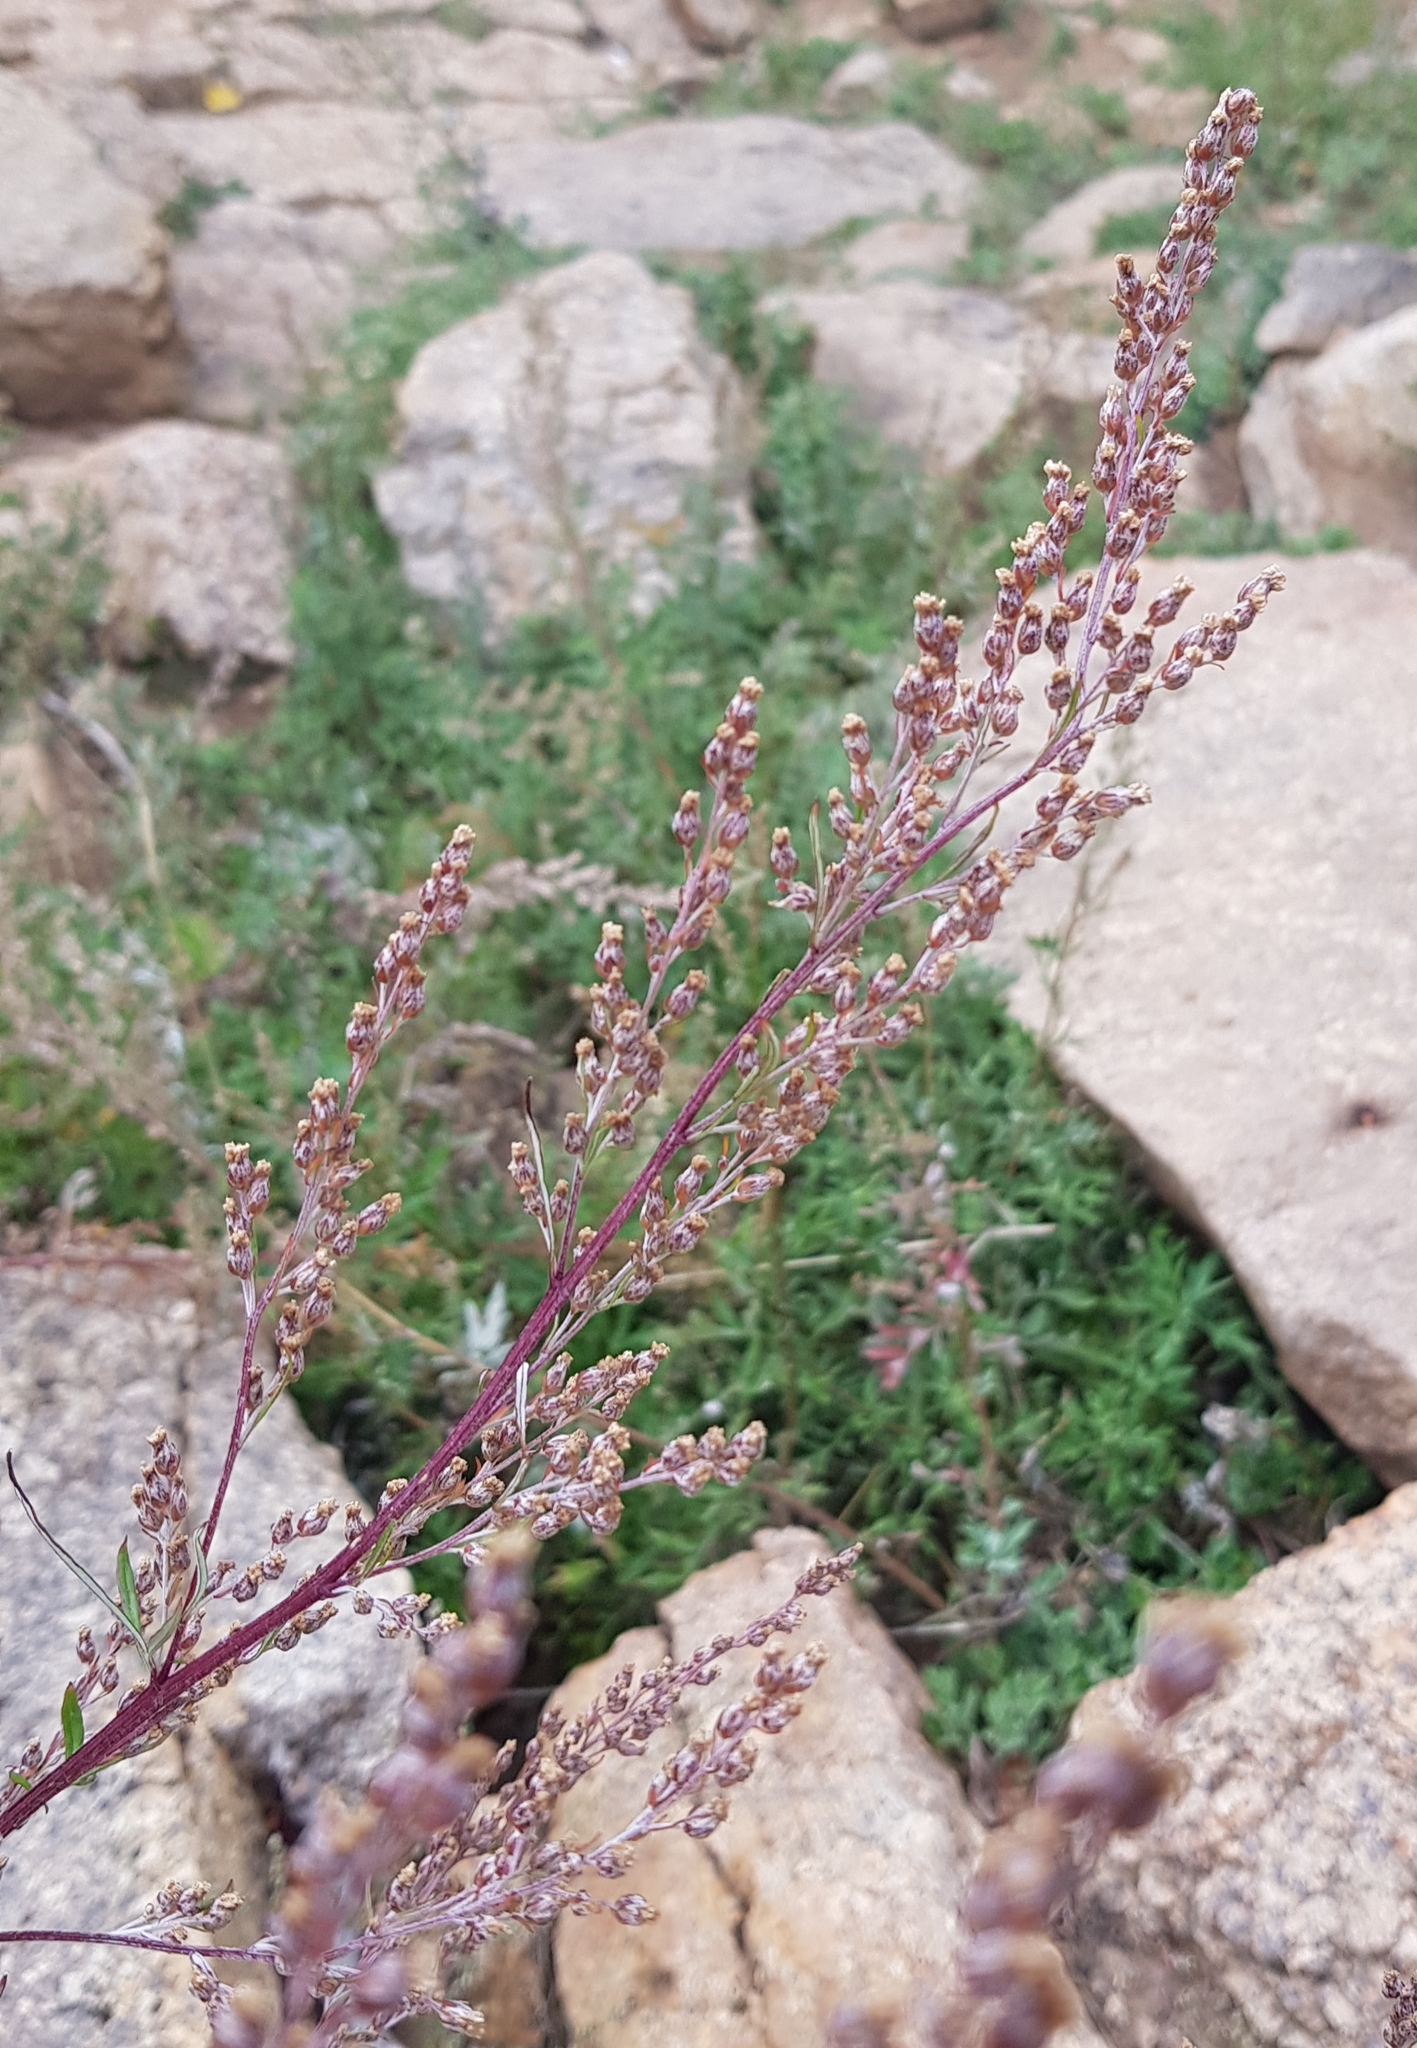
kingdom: Plantae
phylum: Tracheophyta
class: Magnoliopsida
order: Asterales
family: Asteraceae
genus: Artemisia
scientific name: Artemisia vulgaris
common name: Mugwort
